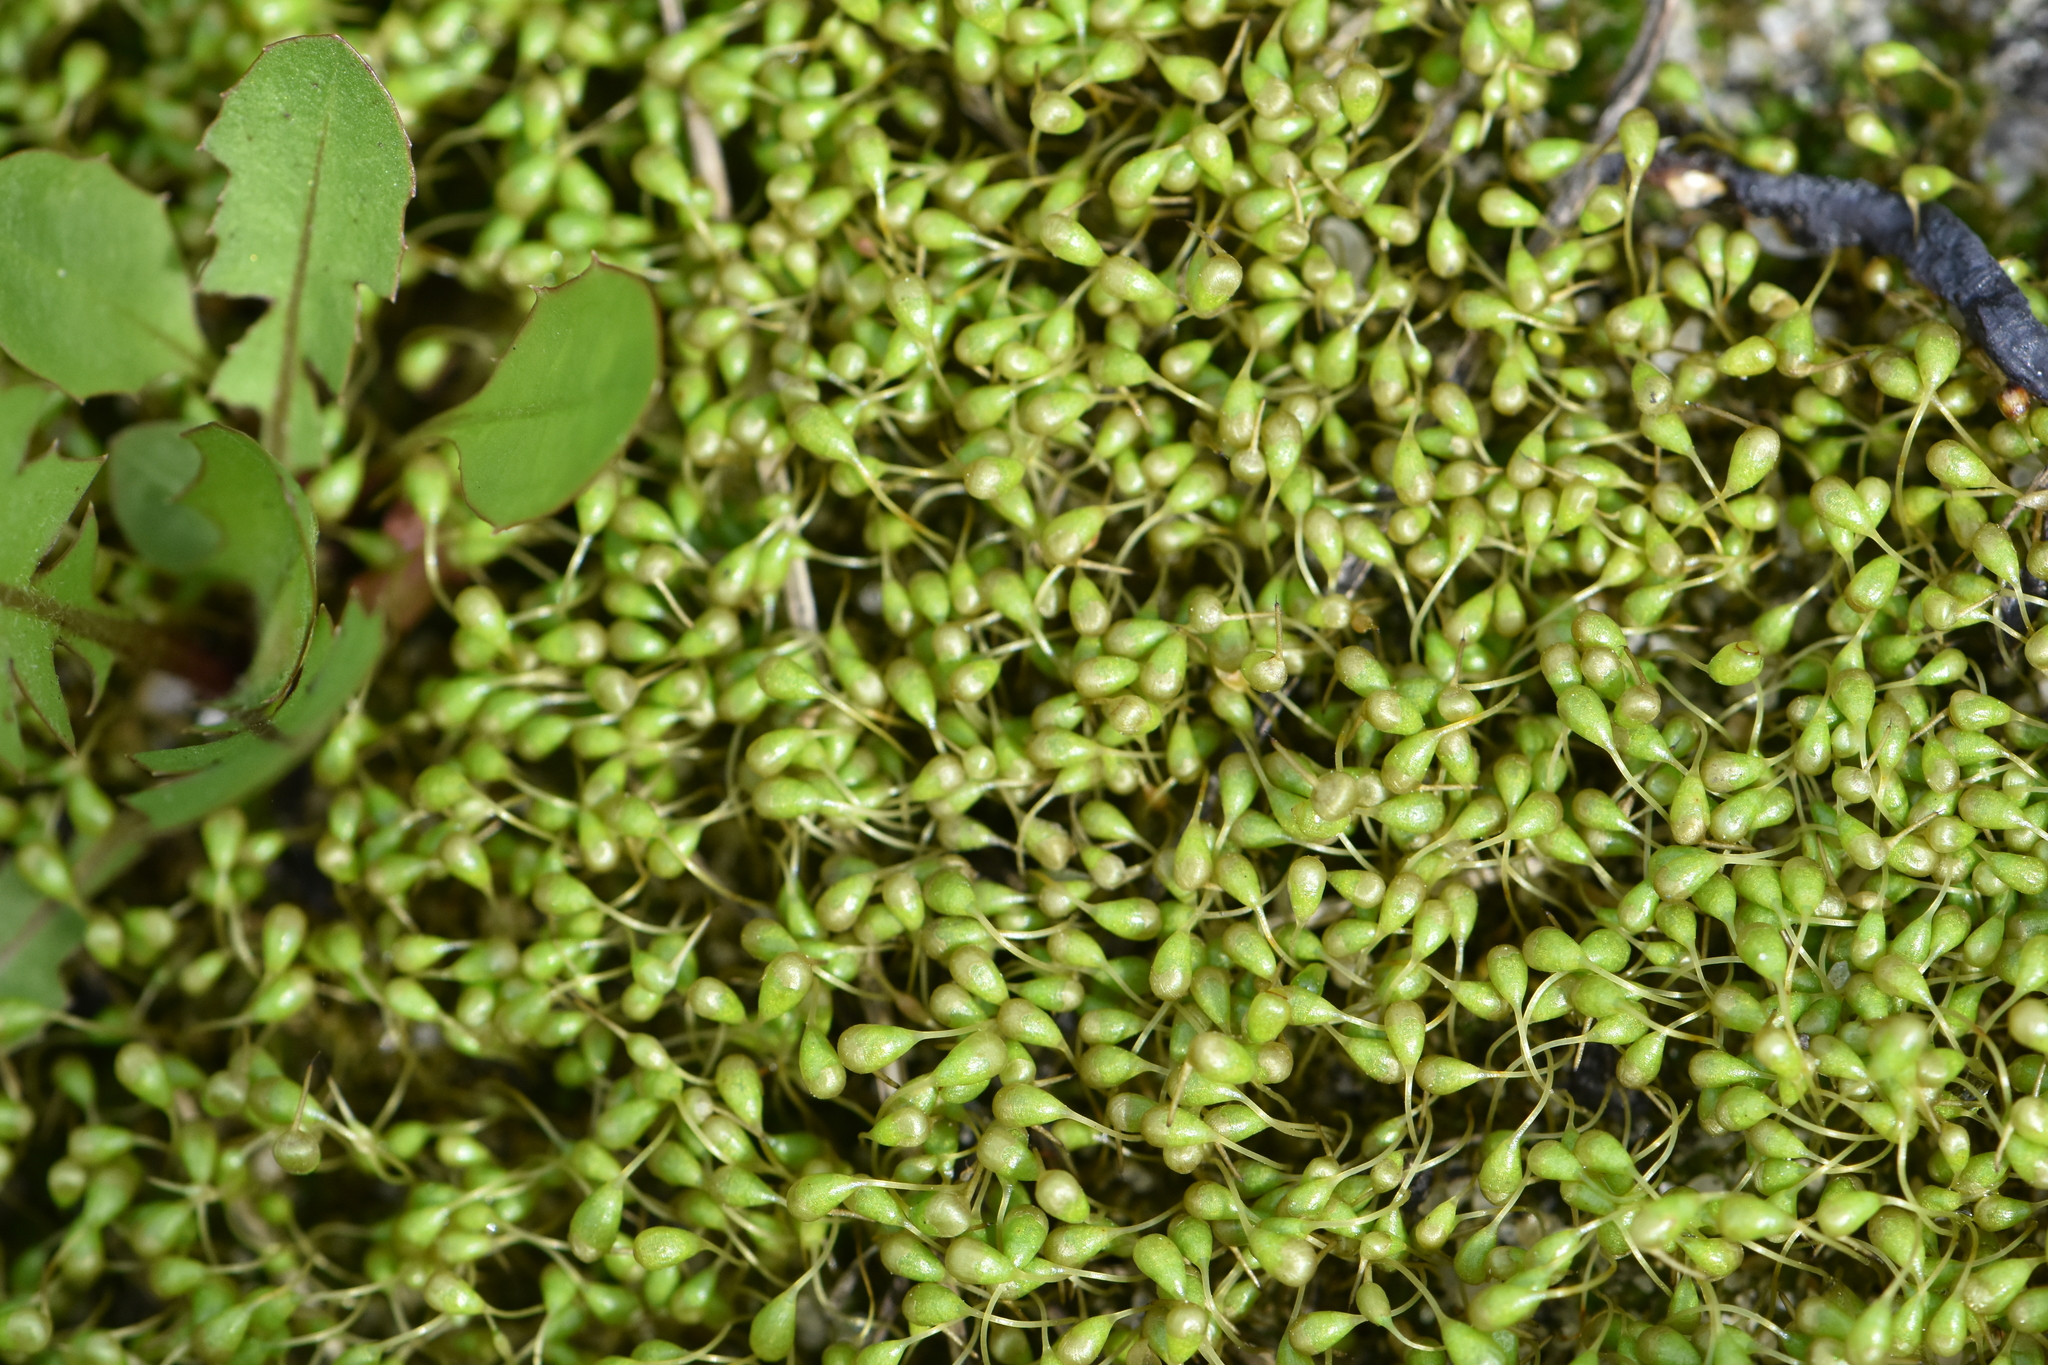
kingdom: Plantae
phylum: Bryophyta
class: Bryopsida
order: Funariales
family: Funariaceae
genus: Funaria
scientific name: Funaria hygrometrica
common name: Common cord moss
